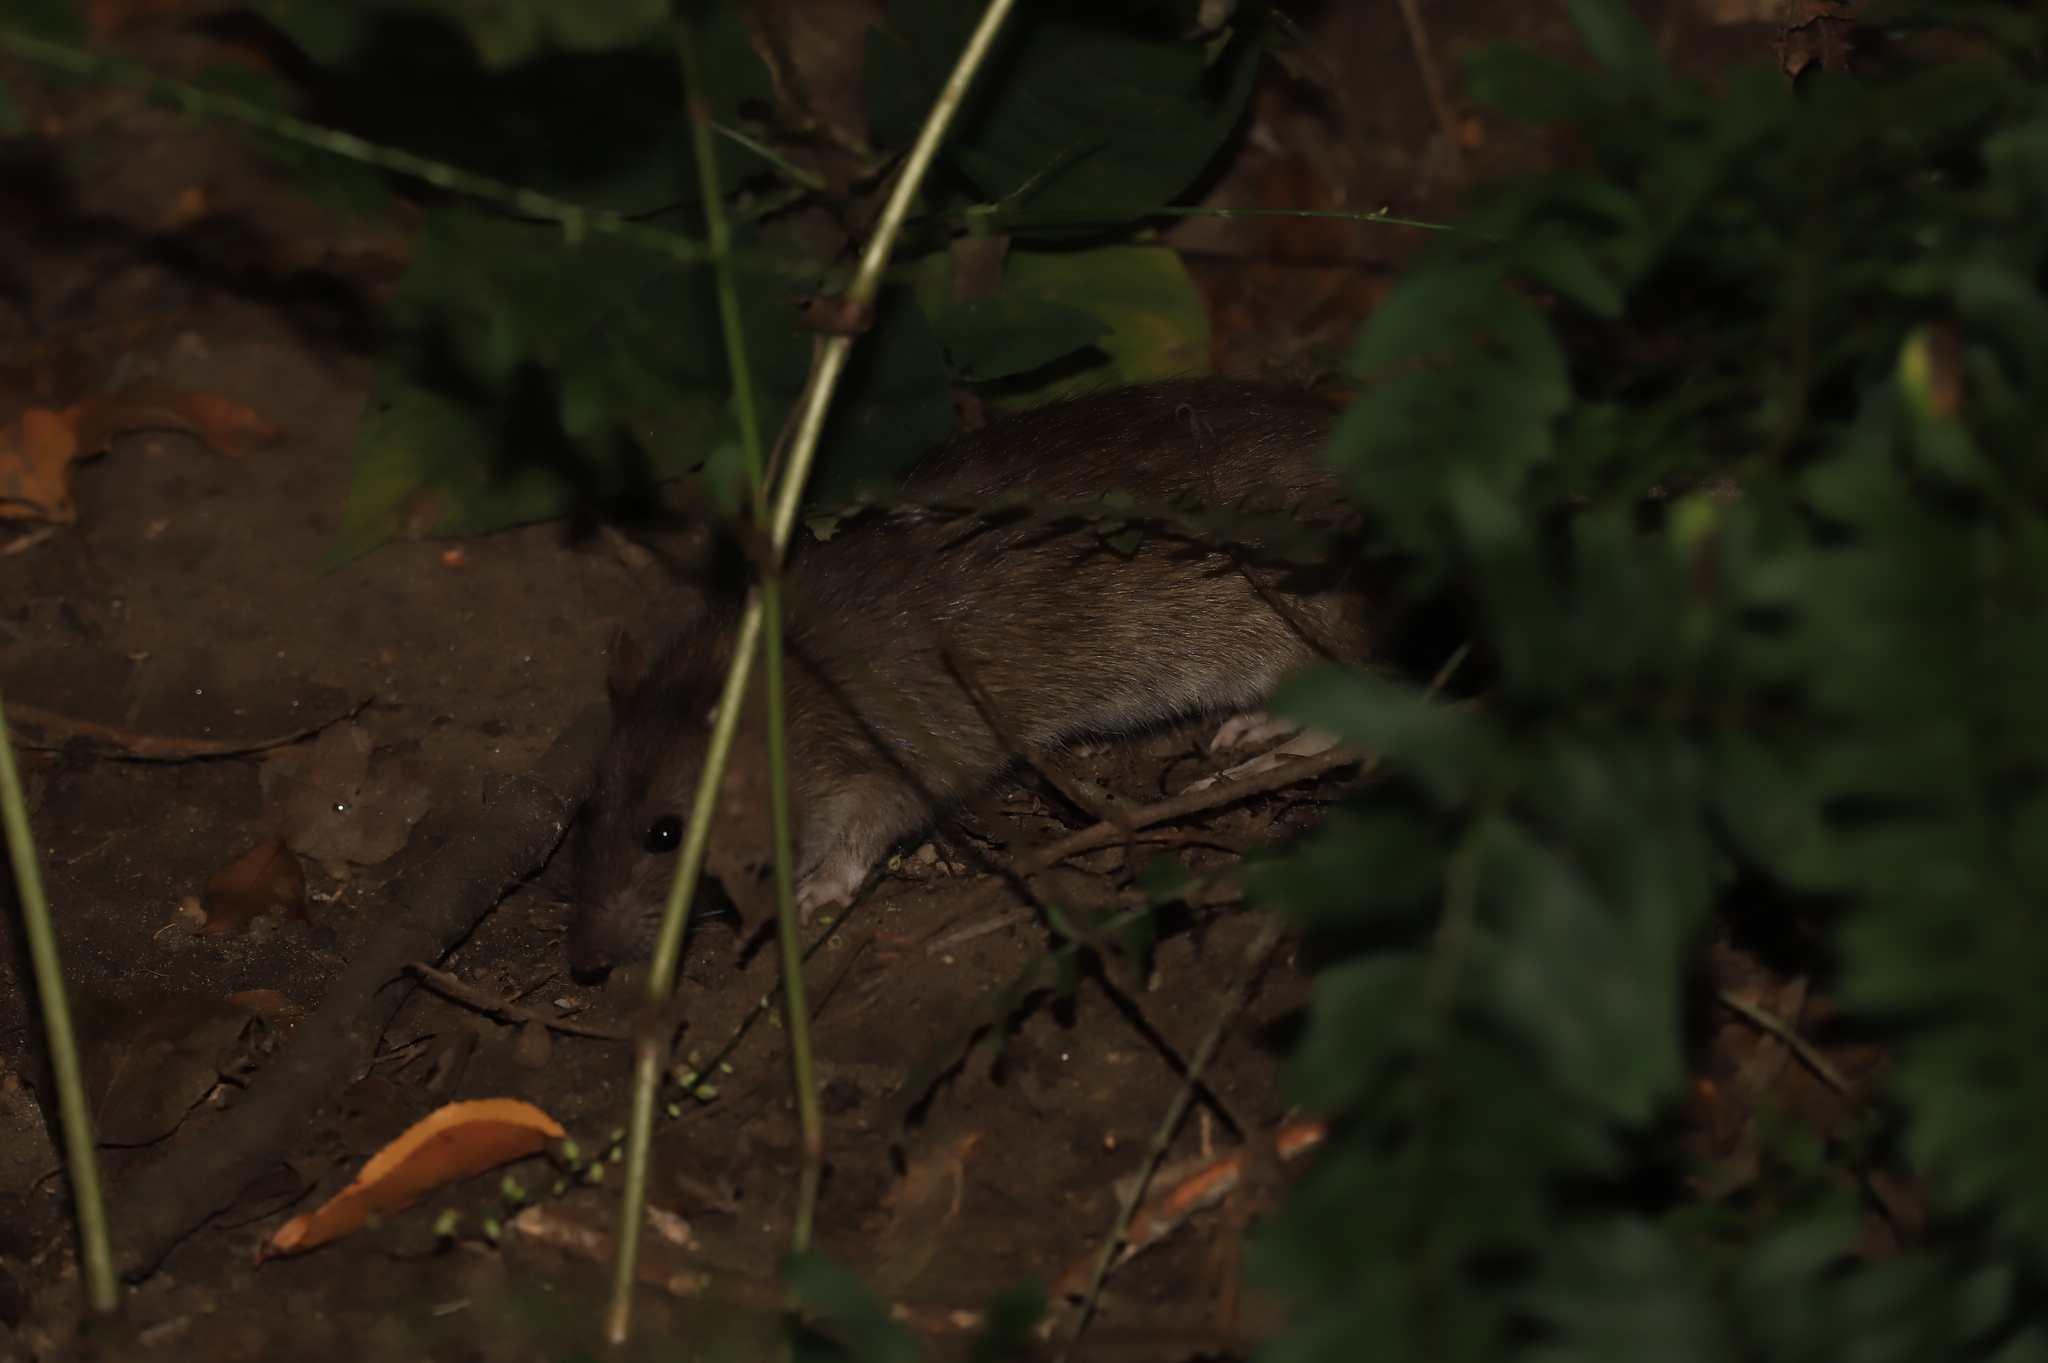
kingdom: Animalia
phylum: Chordata
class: Mammalia
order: Rodentia
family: Muridae
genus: Rattus
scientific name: Rattus norvegicus
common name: Brown rat
